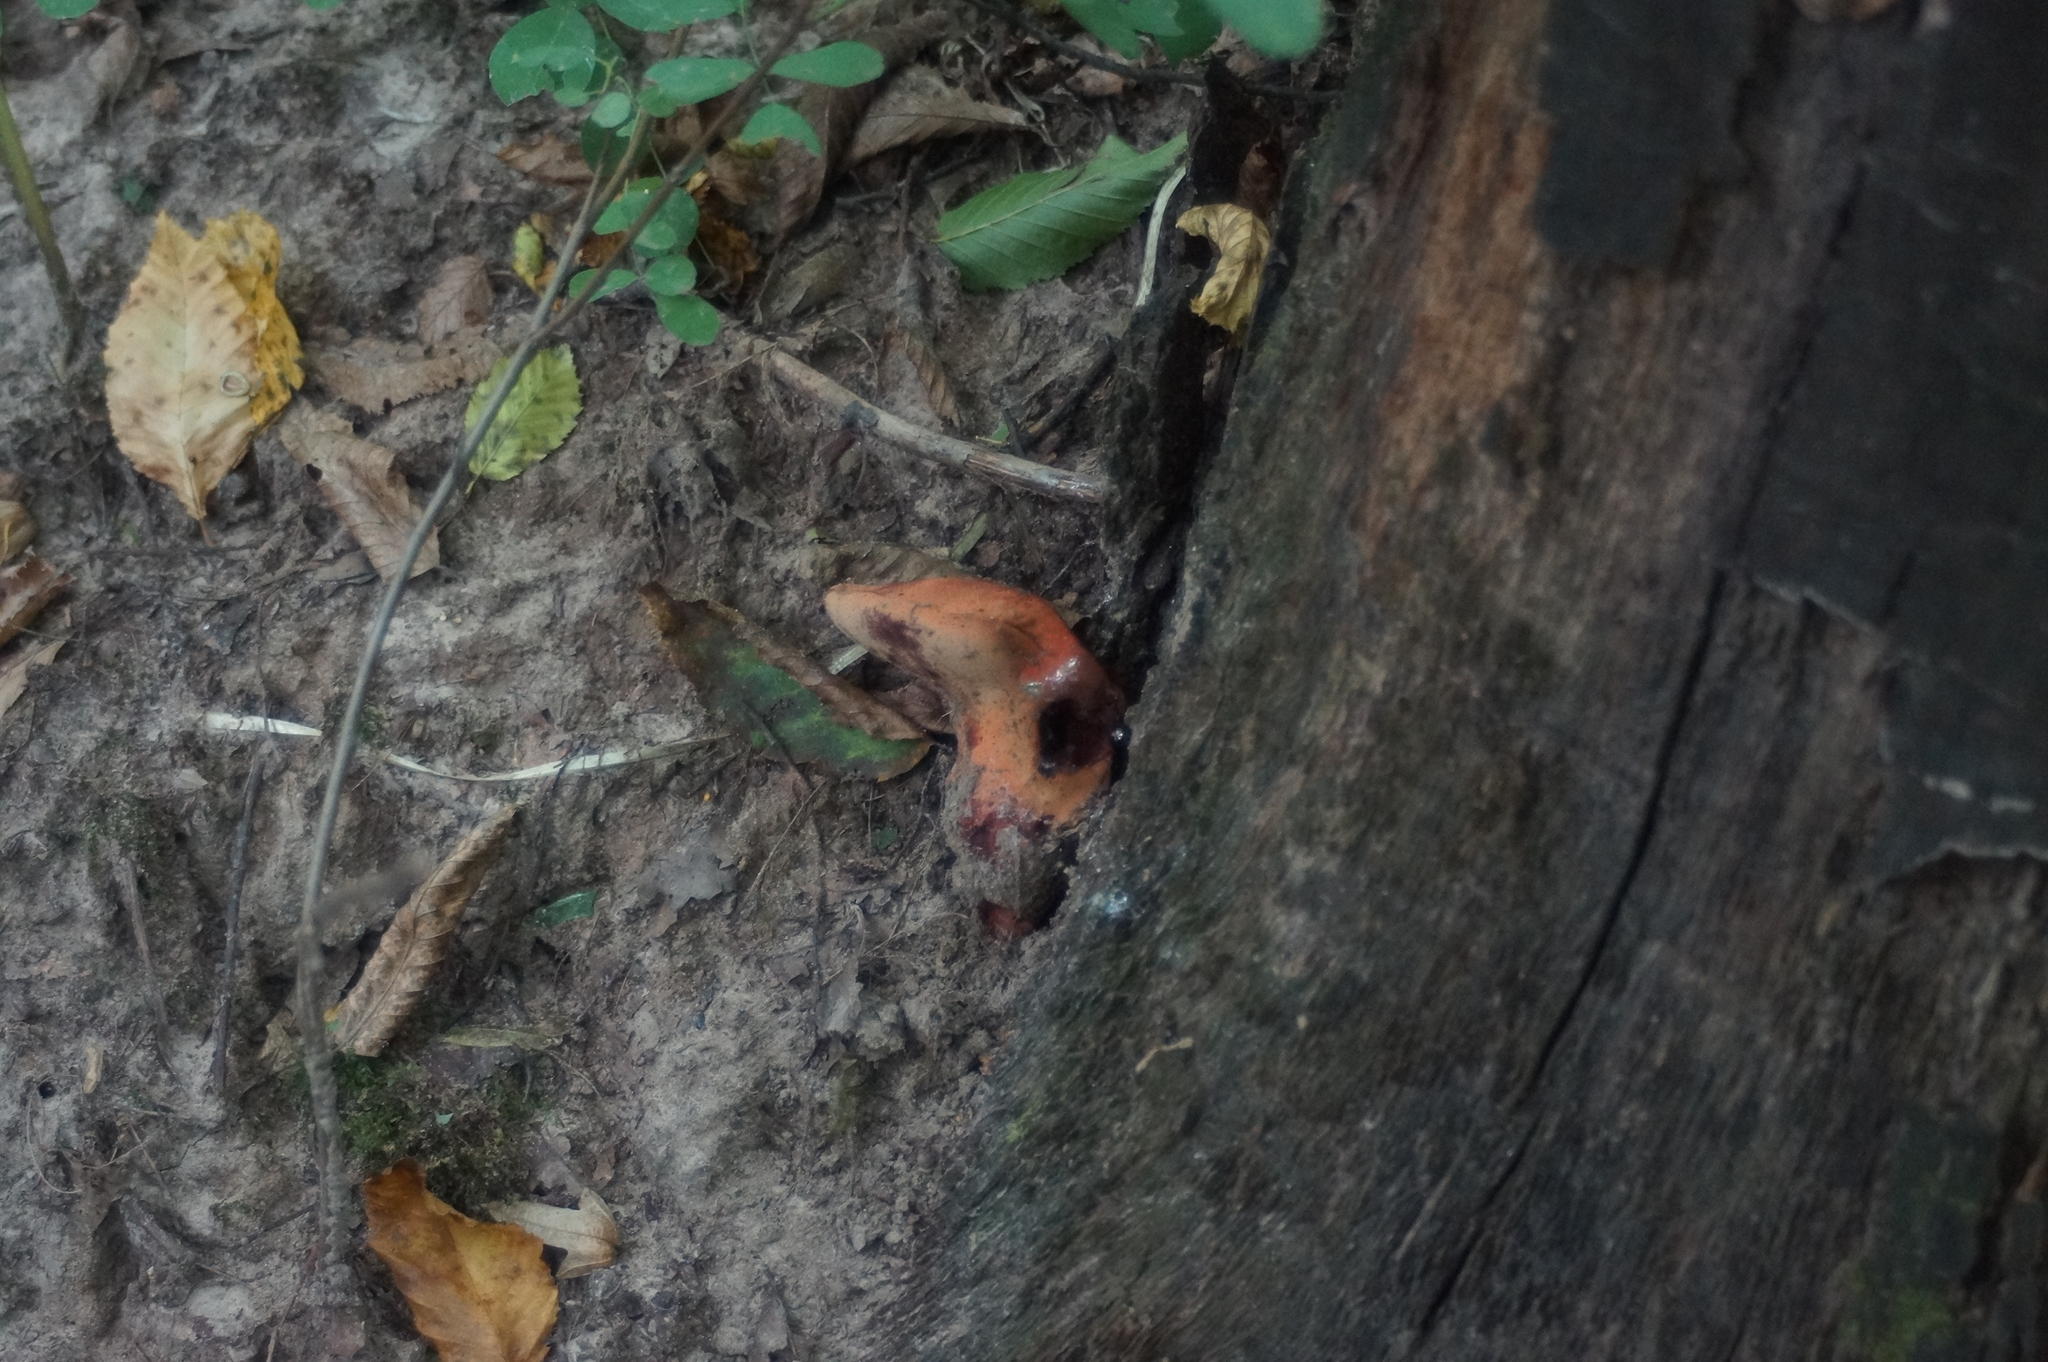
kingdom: Fungi
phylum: Basidiomycota
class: Agaricomycetes
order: Agaricales
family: Fistulinaceae
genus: Fistulina
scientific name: Fistulina hepatica
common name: Beef-steak fungus
